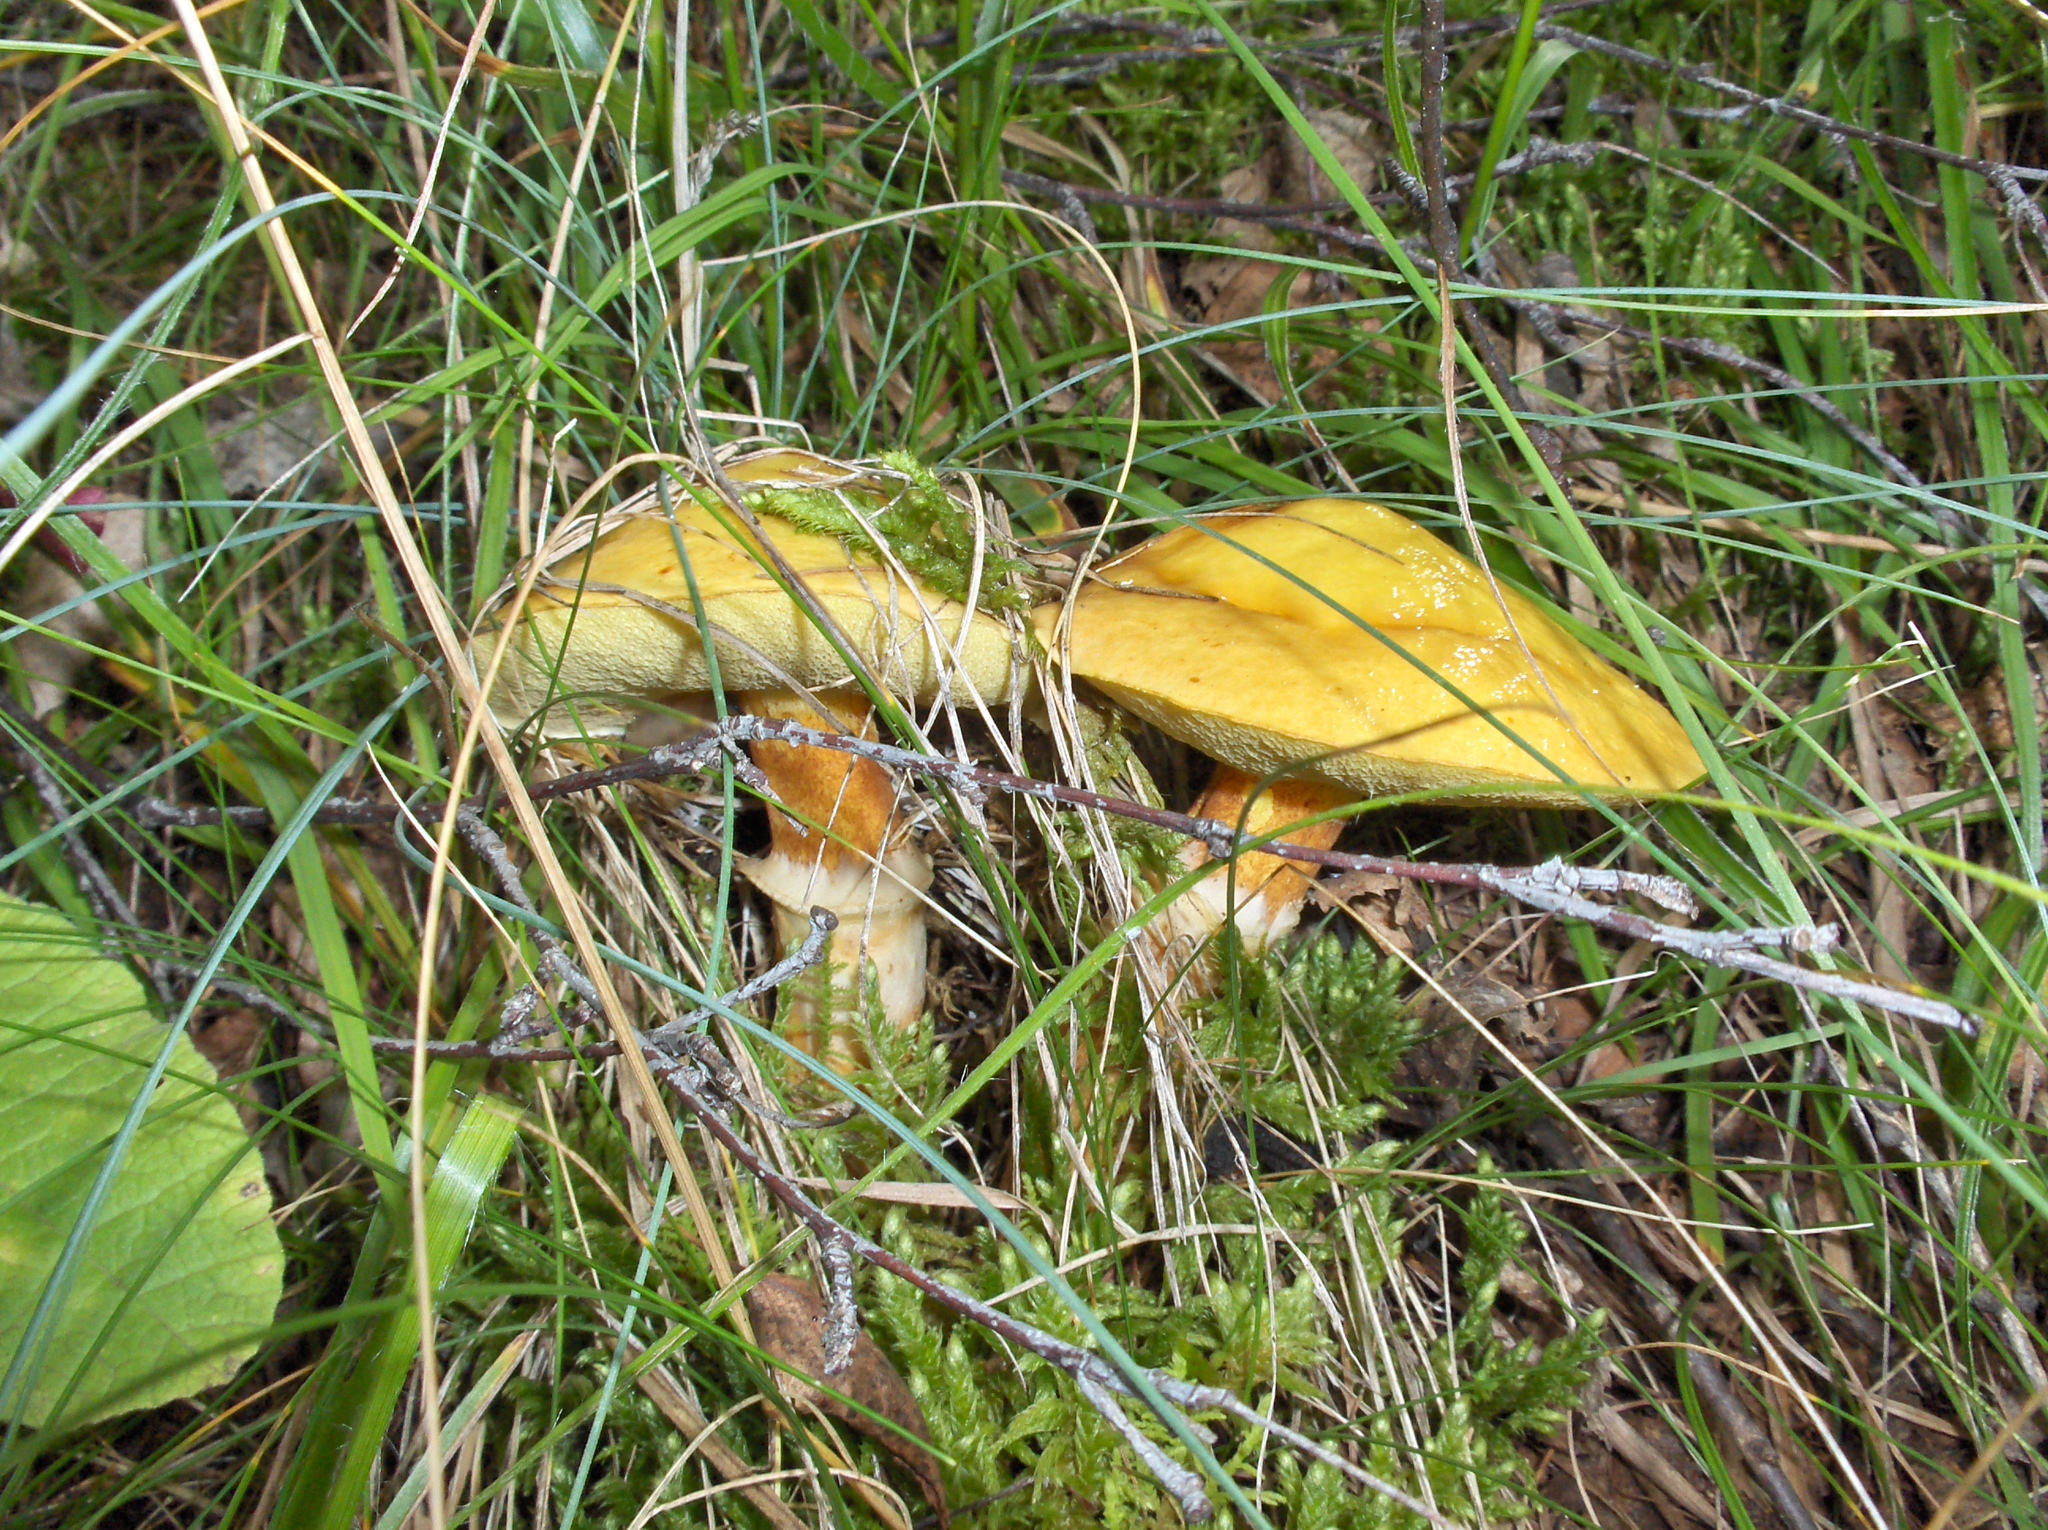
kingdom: Fungi
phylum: Basidiomycota
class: Agaricomycetes
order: Boletales
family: Suillaceae
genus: Suillus
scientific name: Suillus grevillei
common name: Larch bolete
